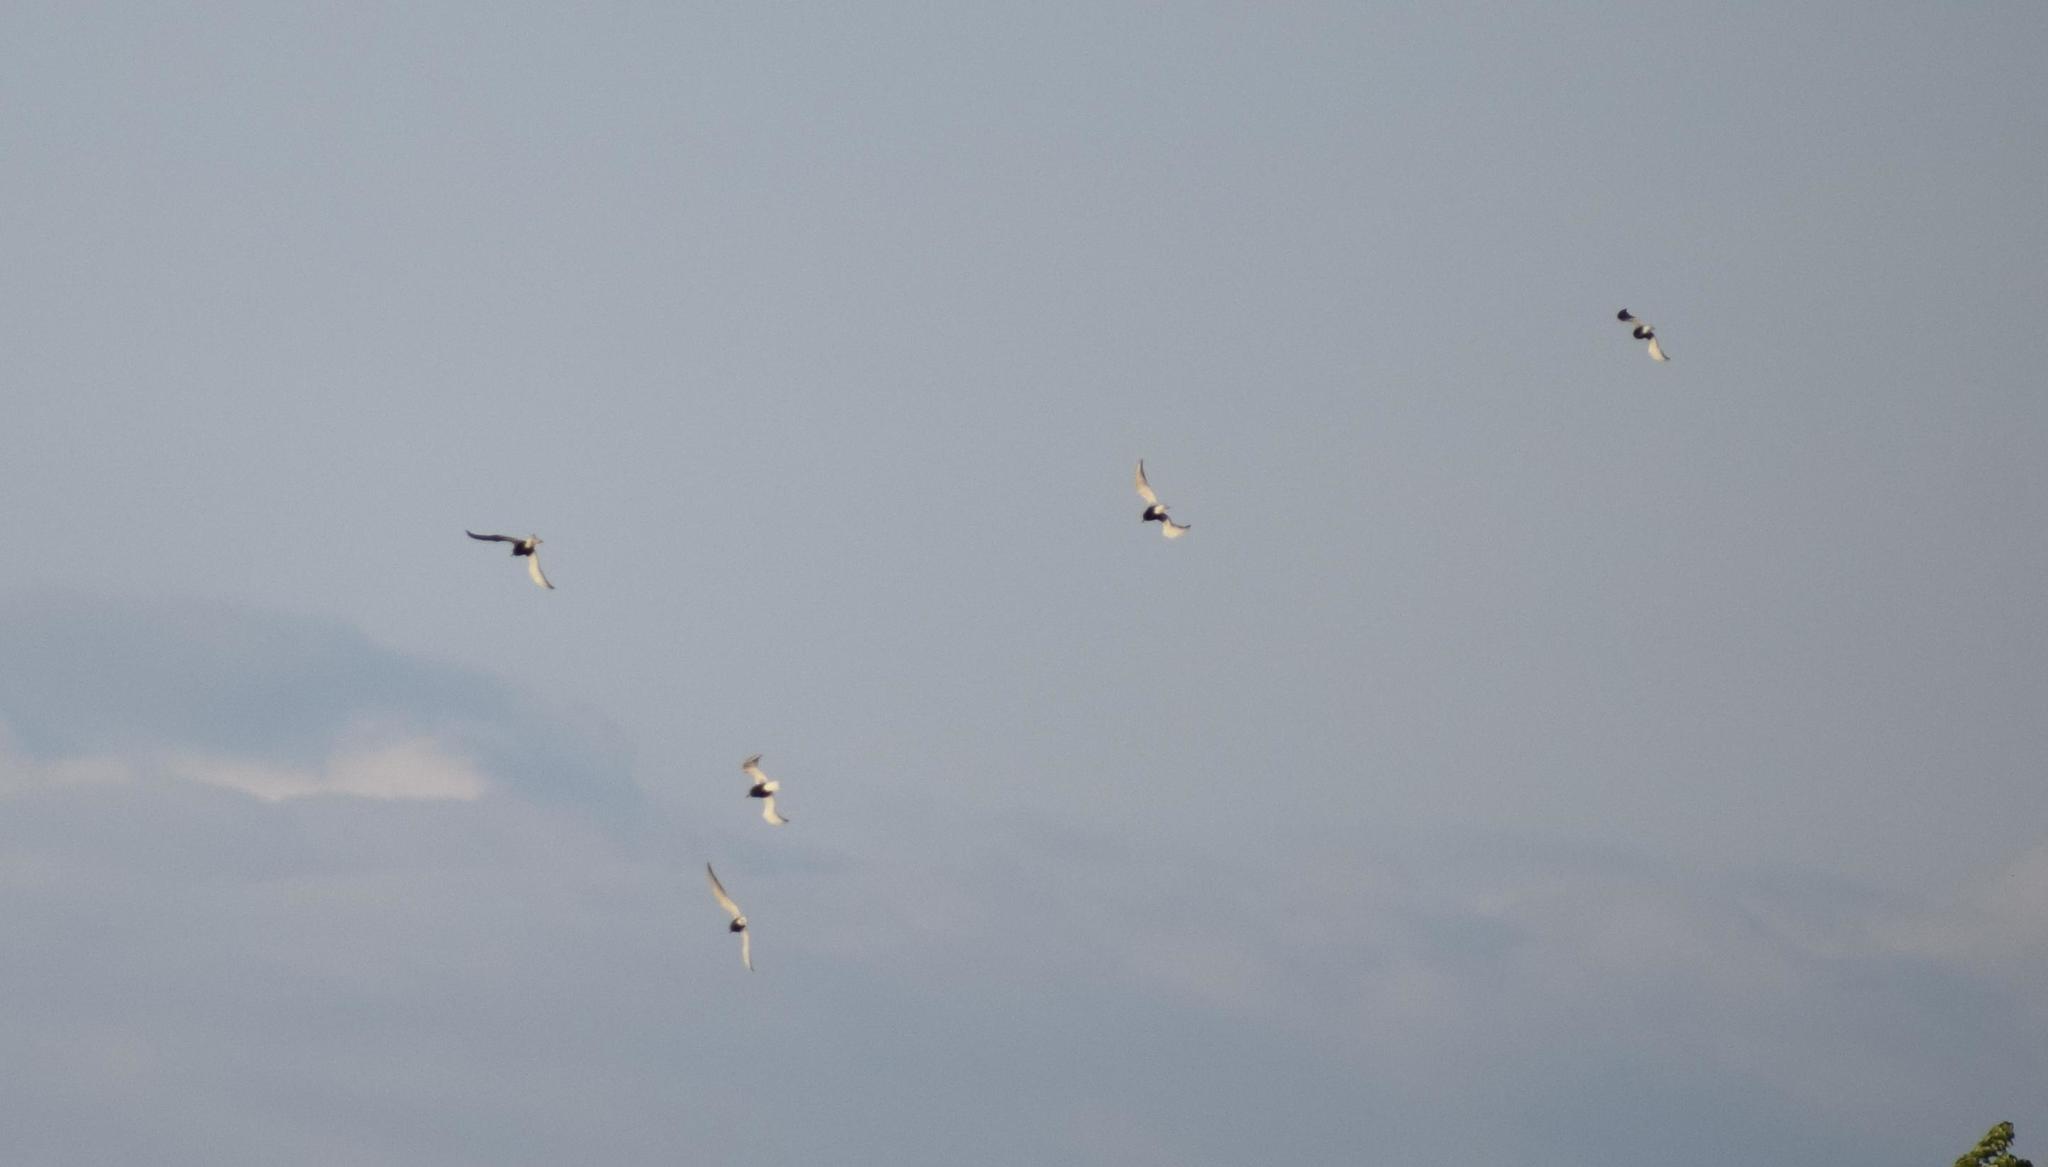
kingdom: Animalia
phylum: Chordata
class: Aves
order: Charadriiformes
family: Laridae
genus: Chlidonias
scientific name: Chlidonias niger
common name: Black tern
